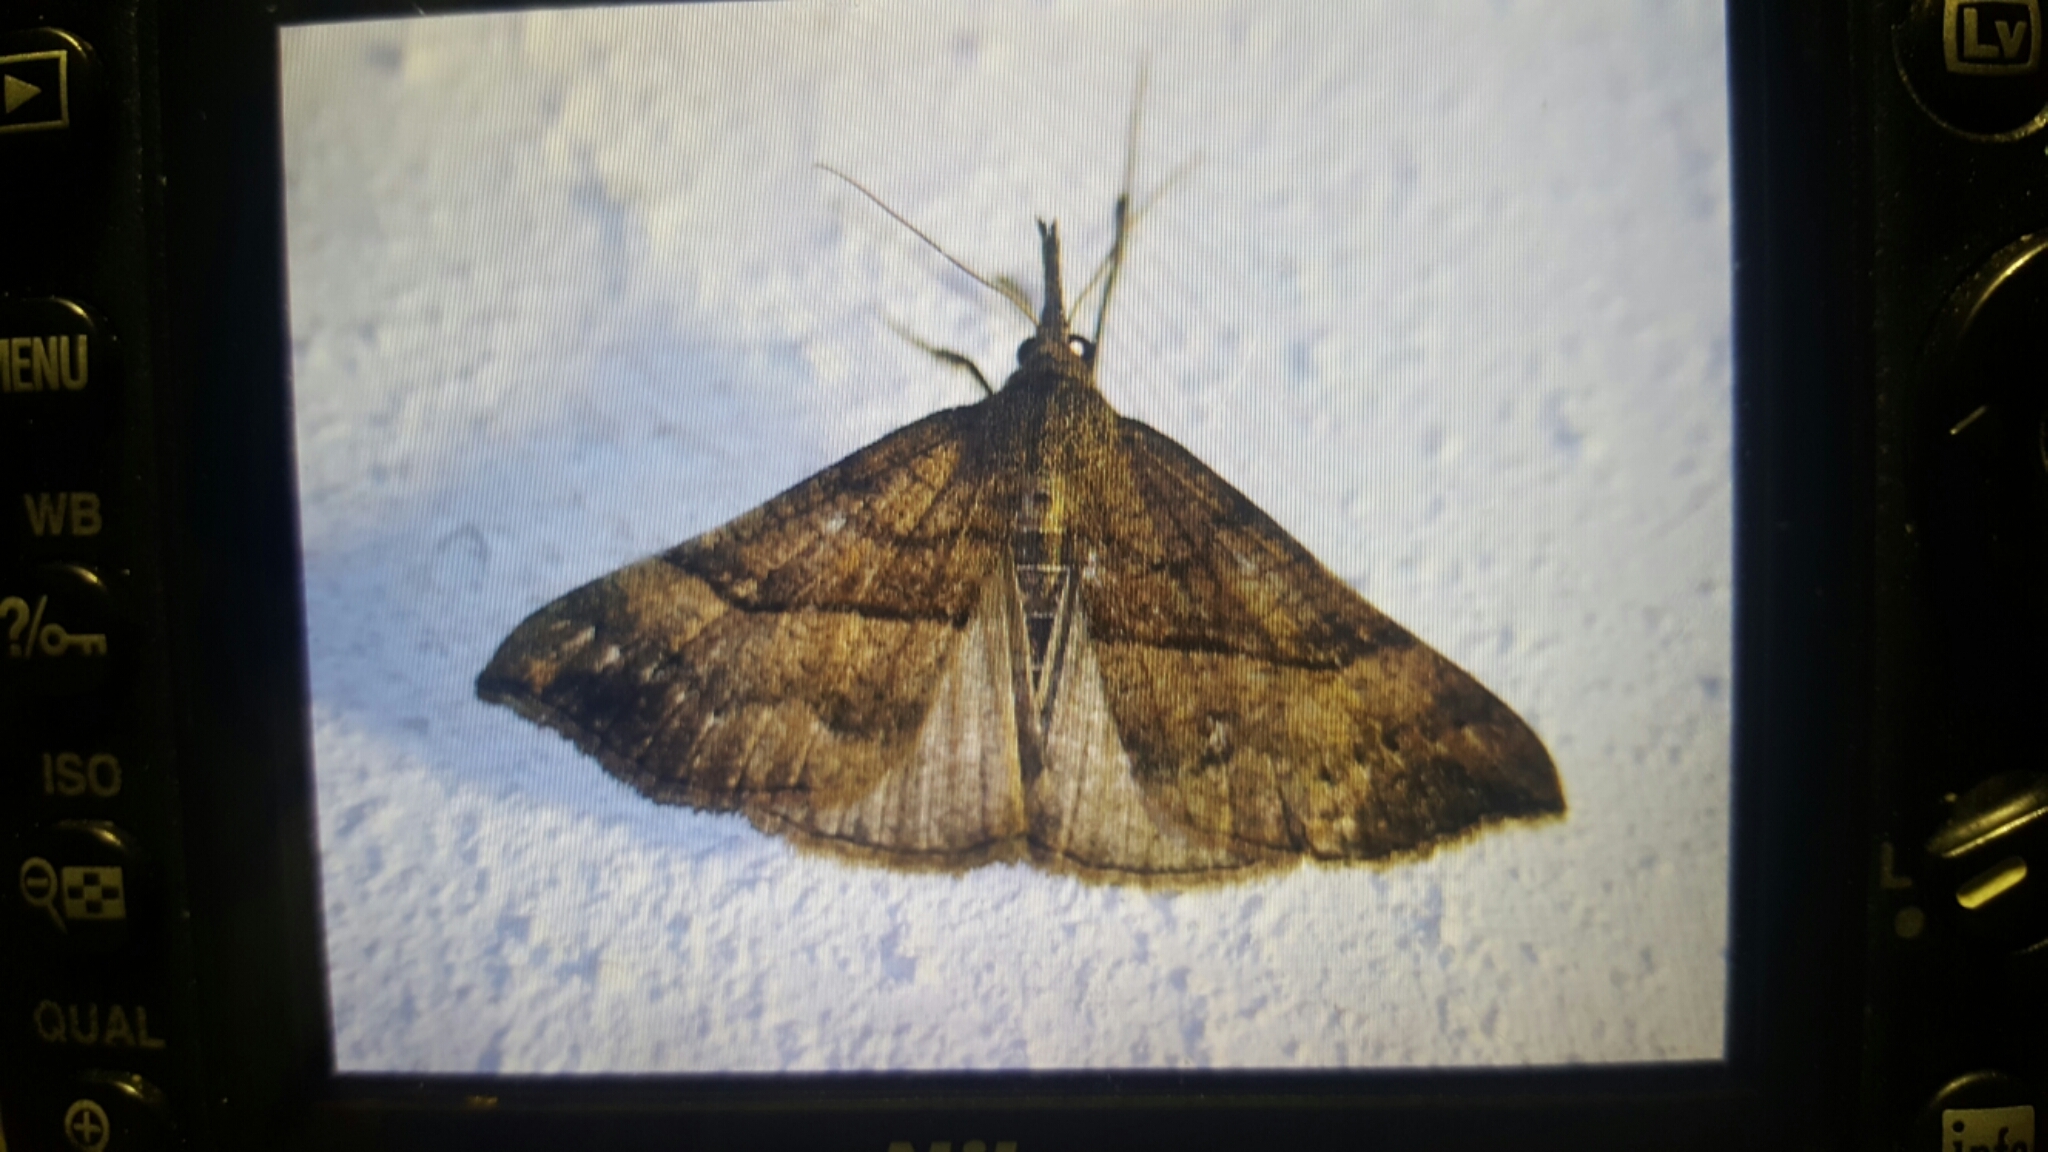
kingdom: Animalia
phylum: Arthropoda
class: Insecta
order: Lepidoptera
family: Erebidae
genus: Hypena
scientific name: Hypena proboscidalis
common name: Snout
